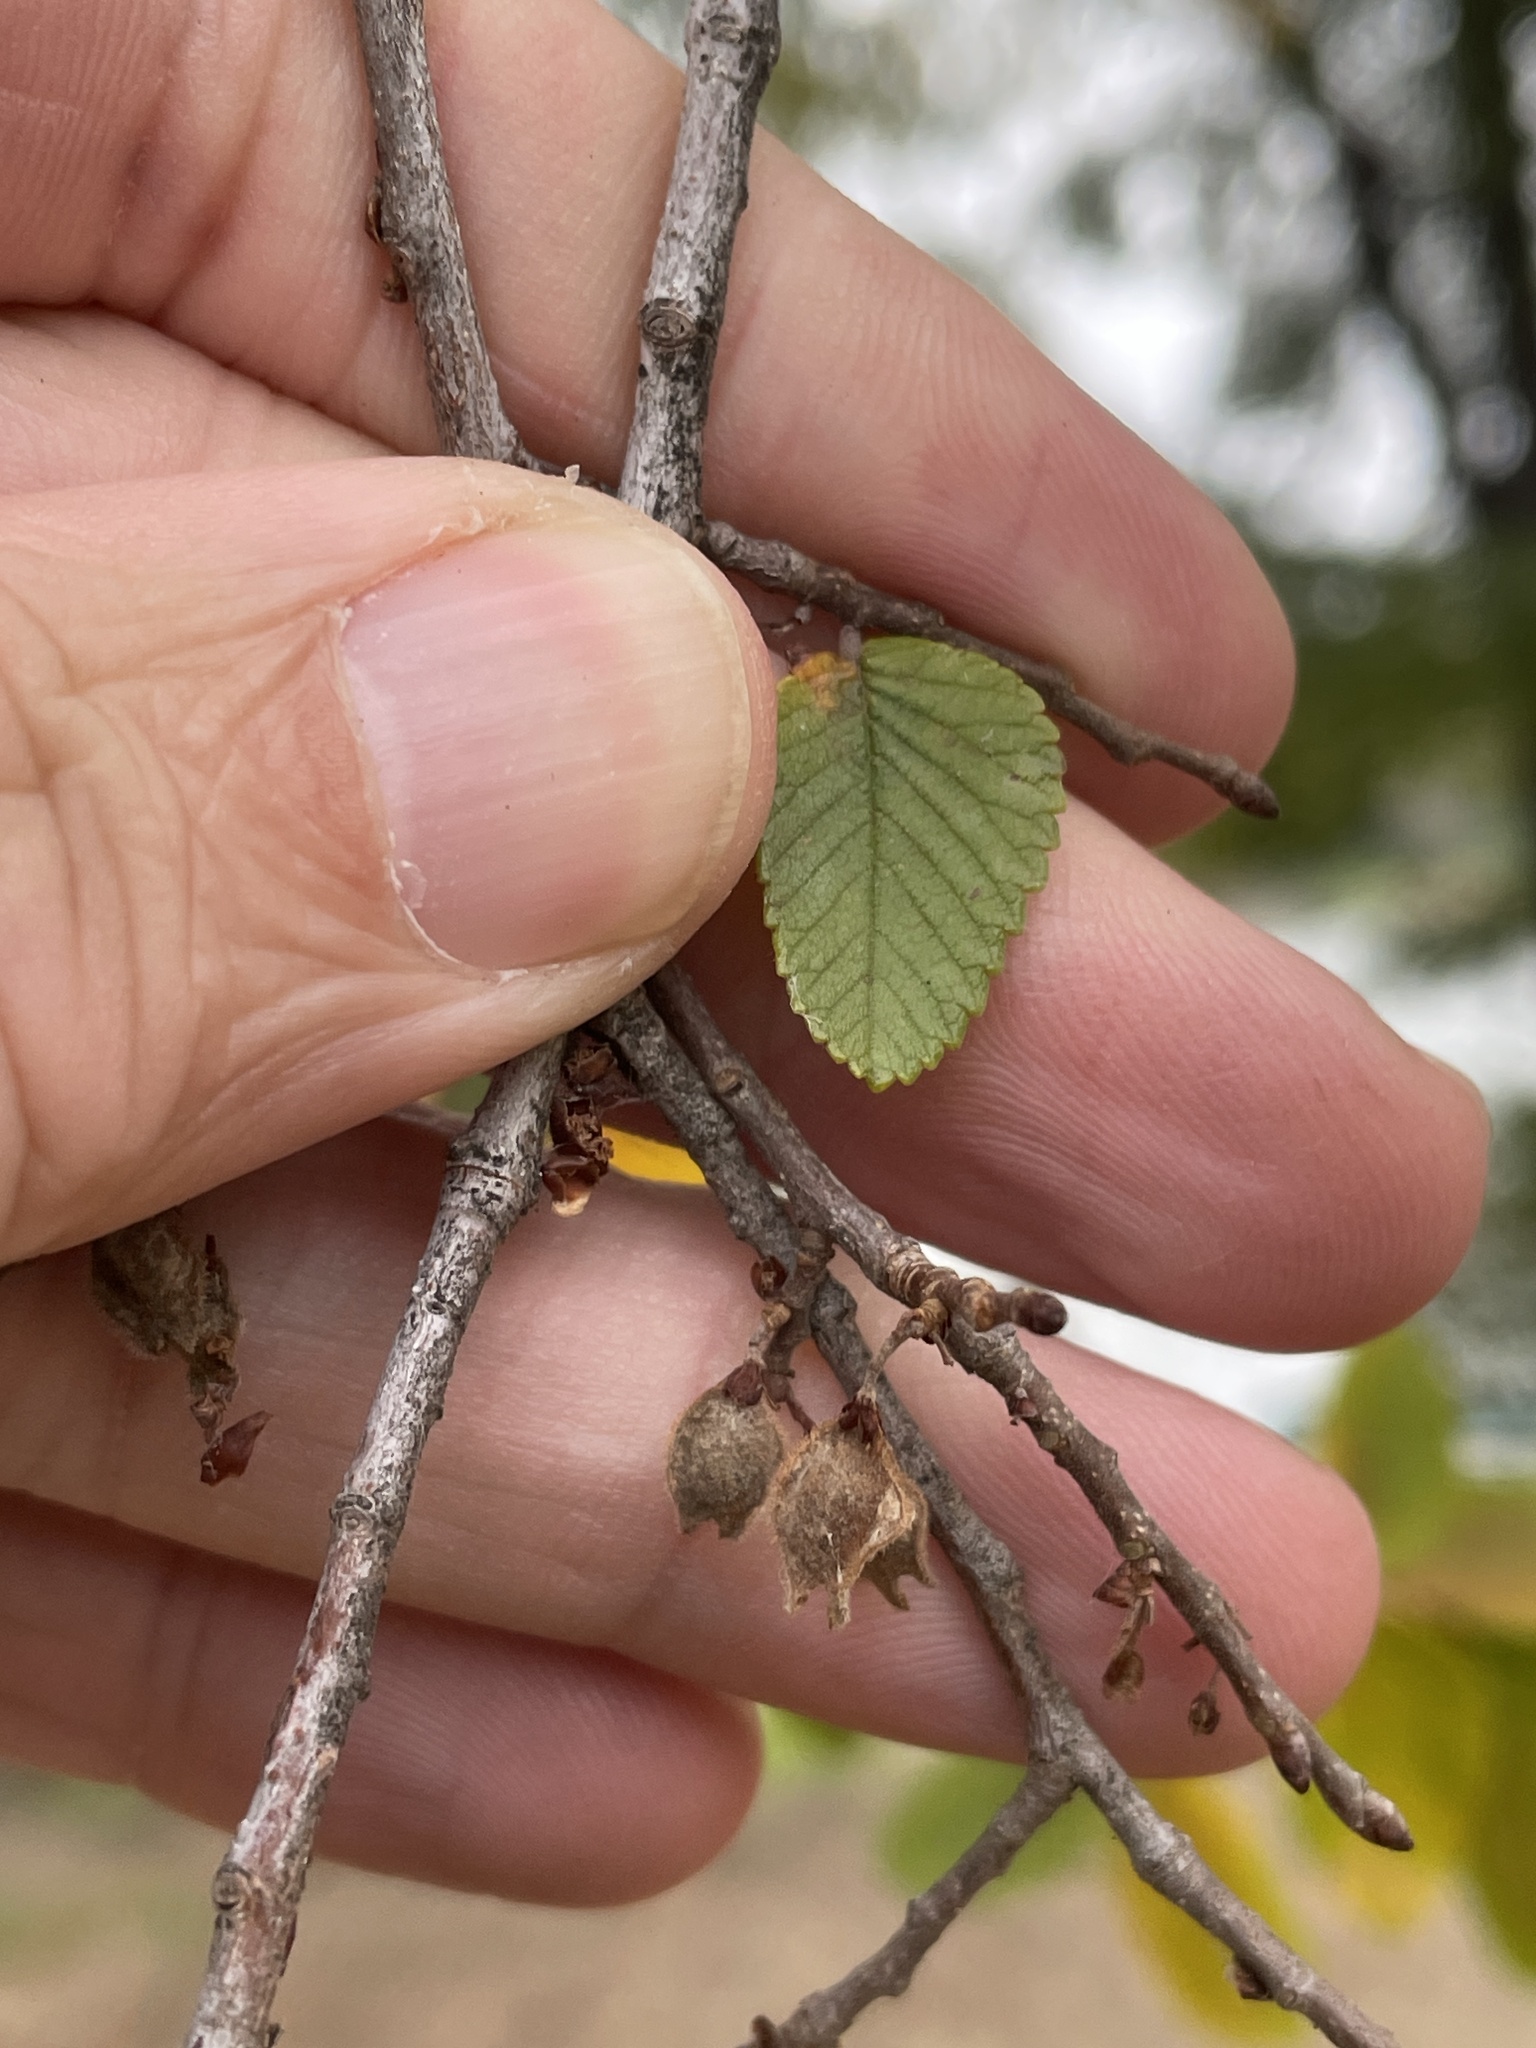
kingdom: Plantae
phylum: Tracheophyta
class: Magnoliopsida
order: Rosales
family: Ulmaceae
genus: Ulmus
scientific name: Ulmus crassifolia
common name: Basket elm
